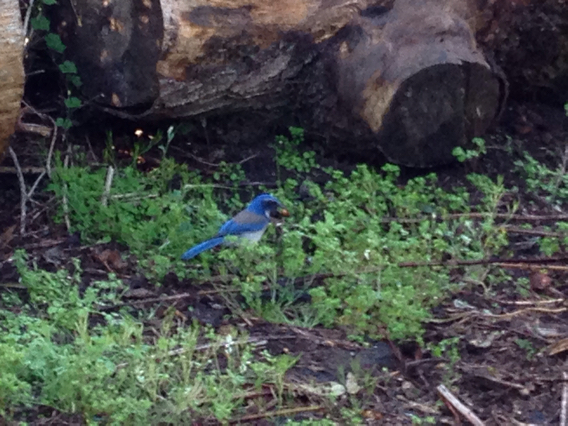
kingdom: Animalia
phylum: Chordata
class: Aves
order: Passeriformes
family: Corvidae
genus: Aphelocoma
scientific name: Aphelocoma californica
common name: California scrub-jay
